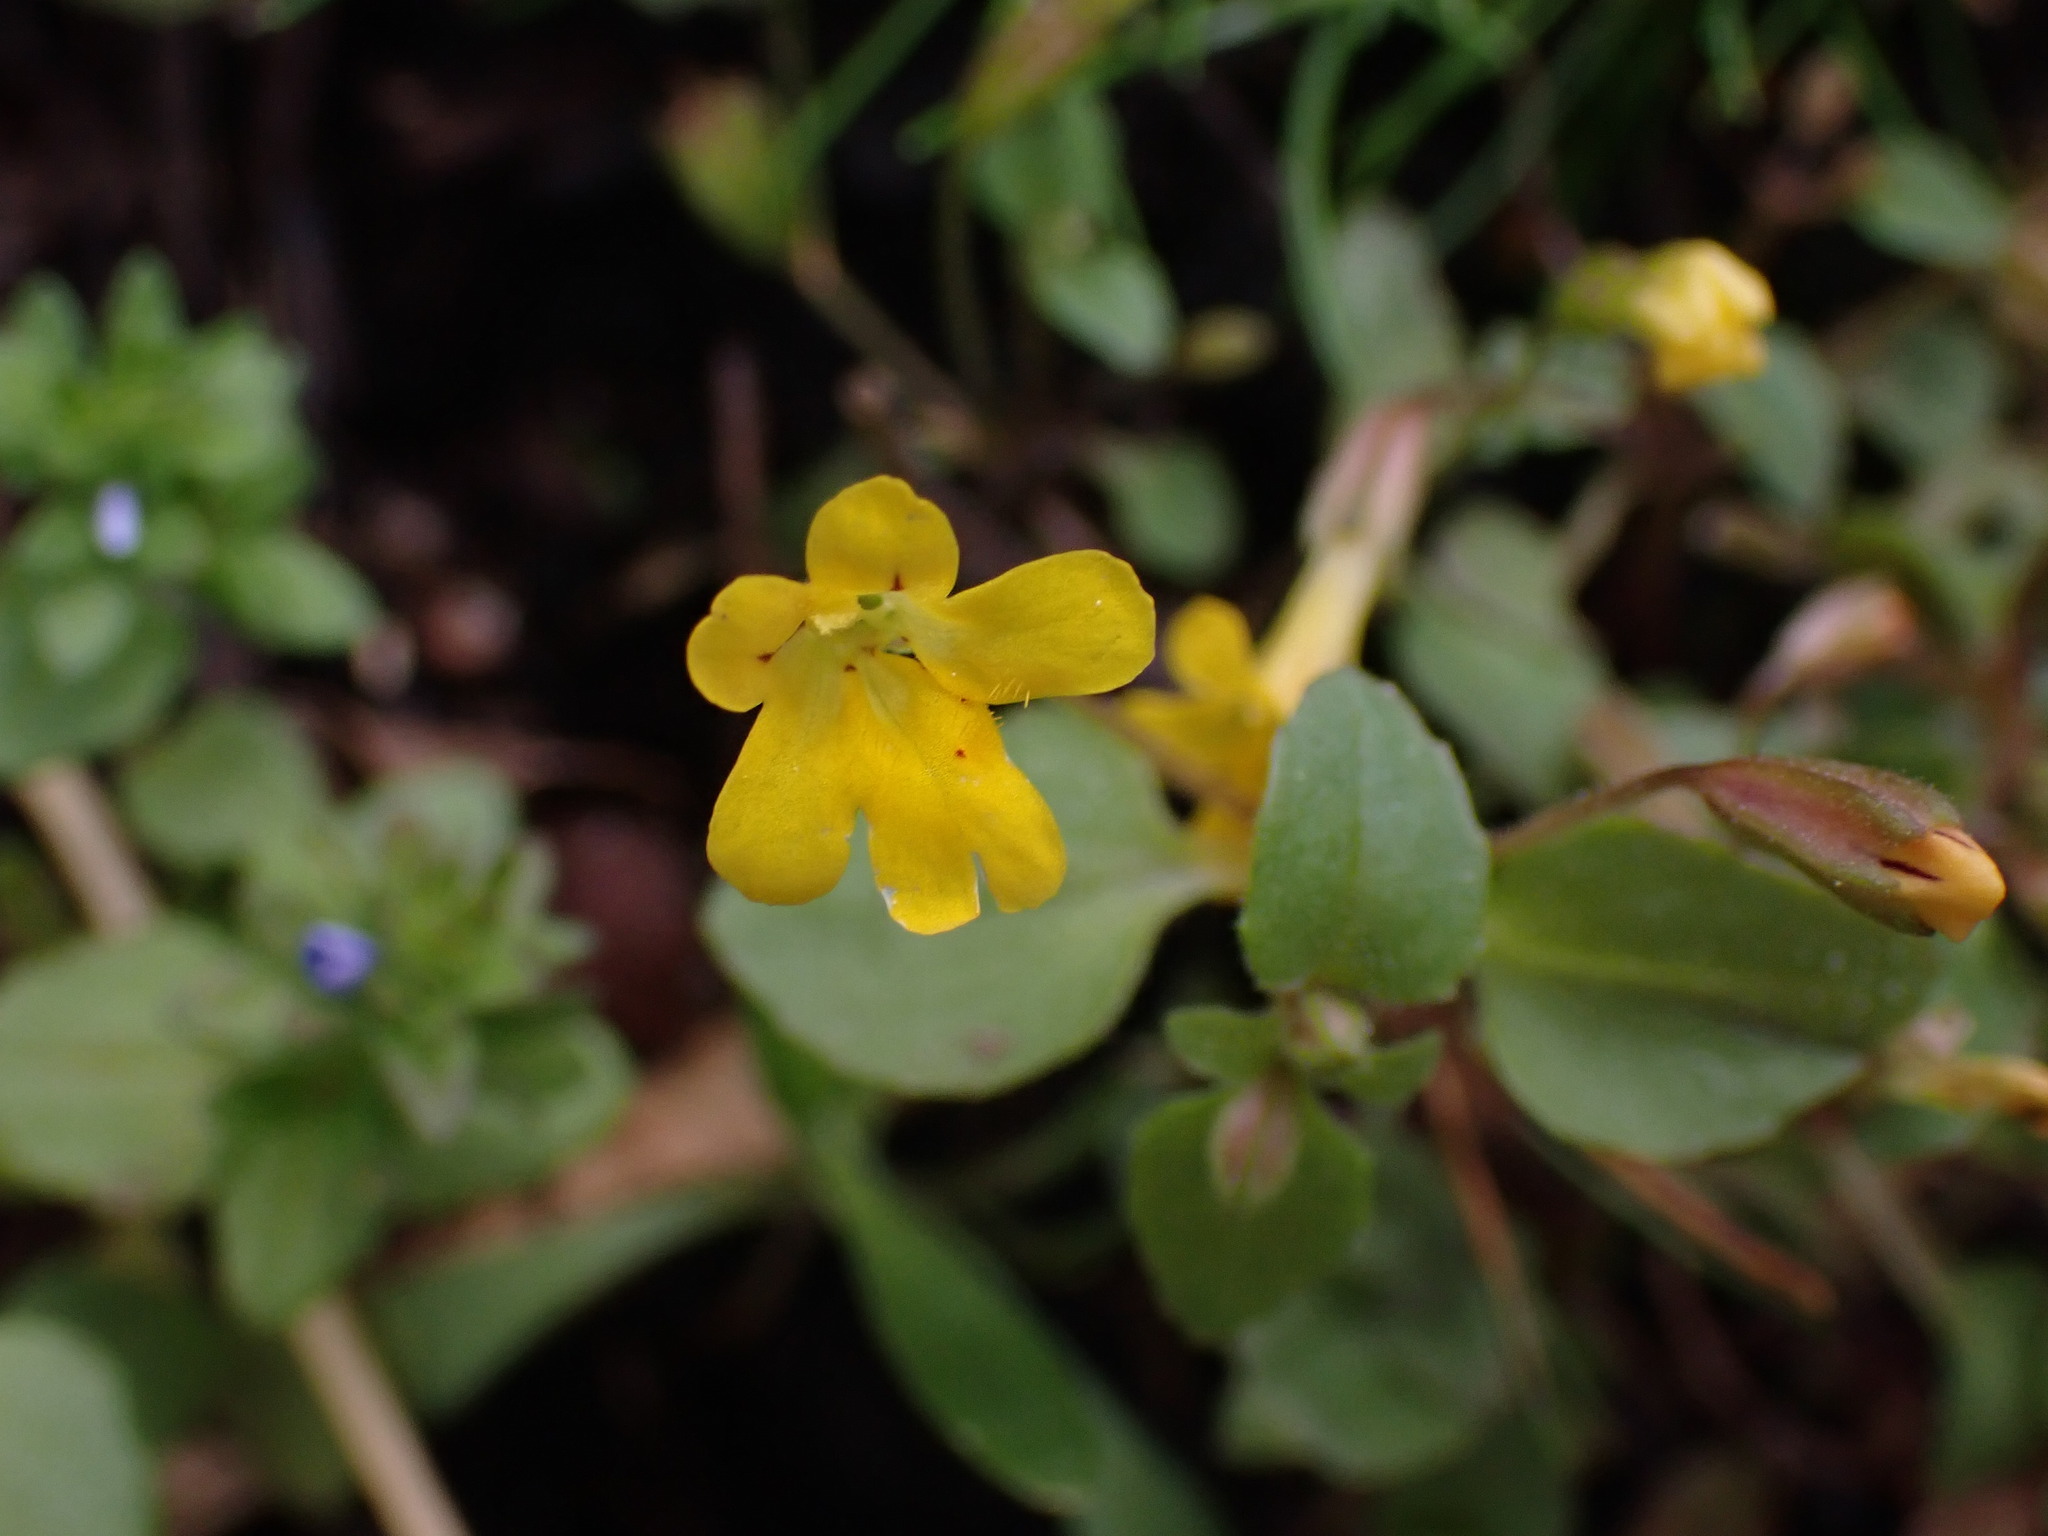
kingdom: Plantae
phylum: Tracheophyta
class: Magnoliopsida
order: Lamiales
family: Phrymaceae
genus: Erythranthe
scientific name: Erythranthe alsinoides
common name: Chickweed monkeyflower
